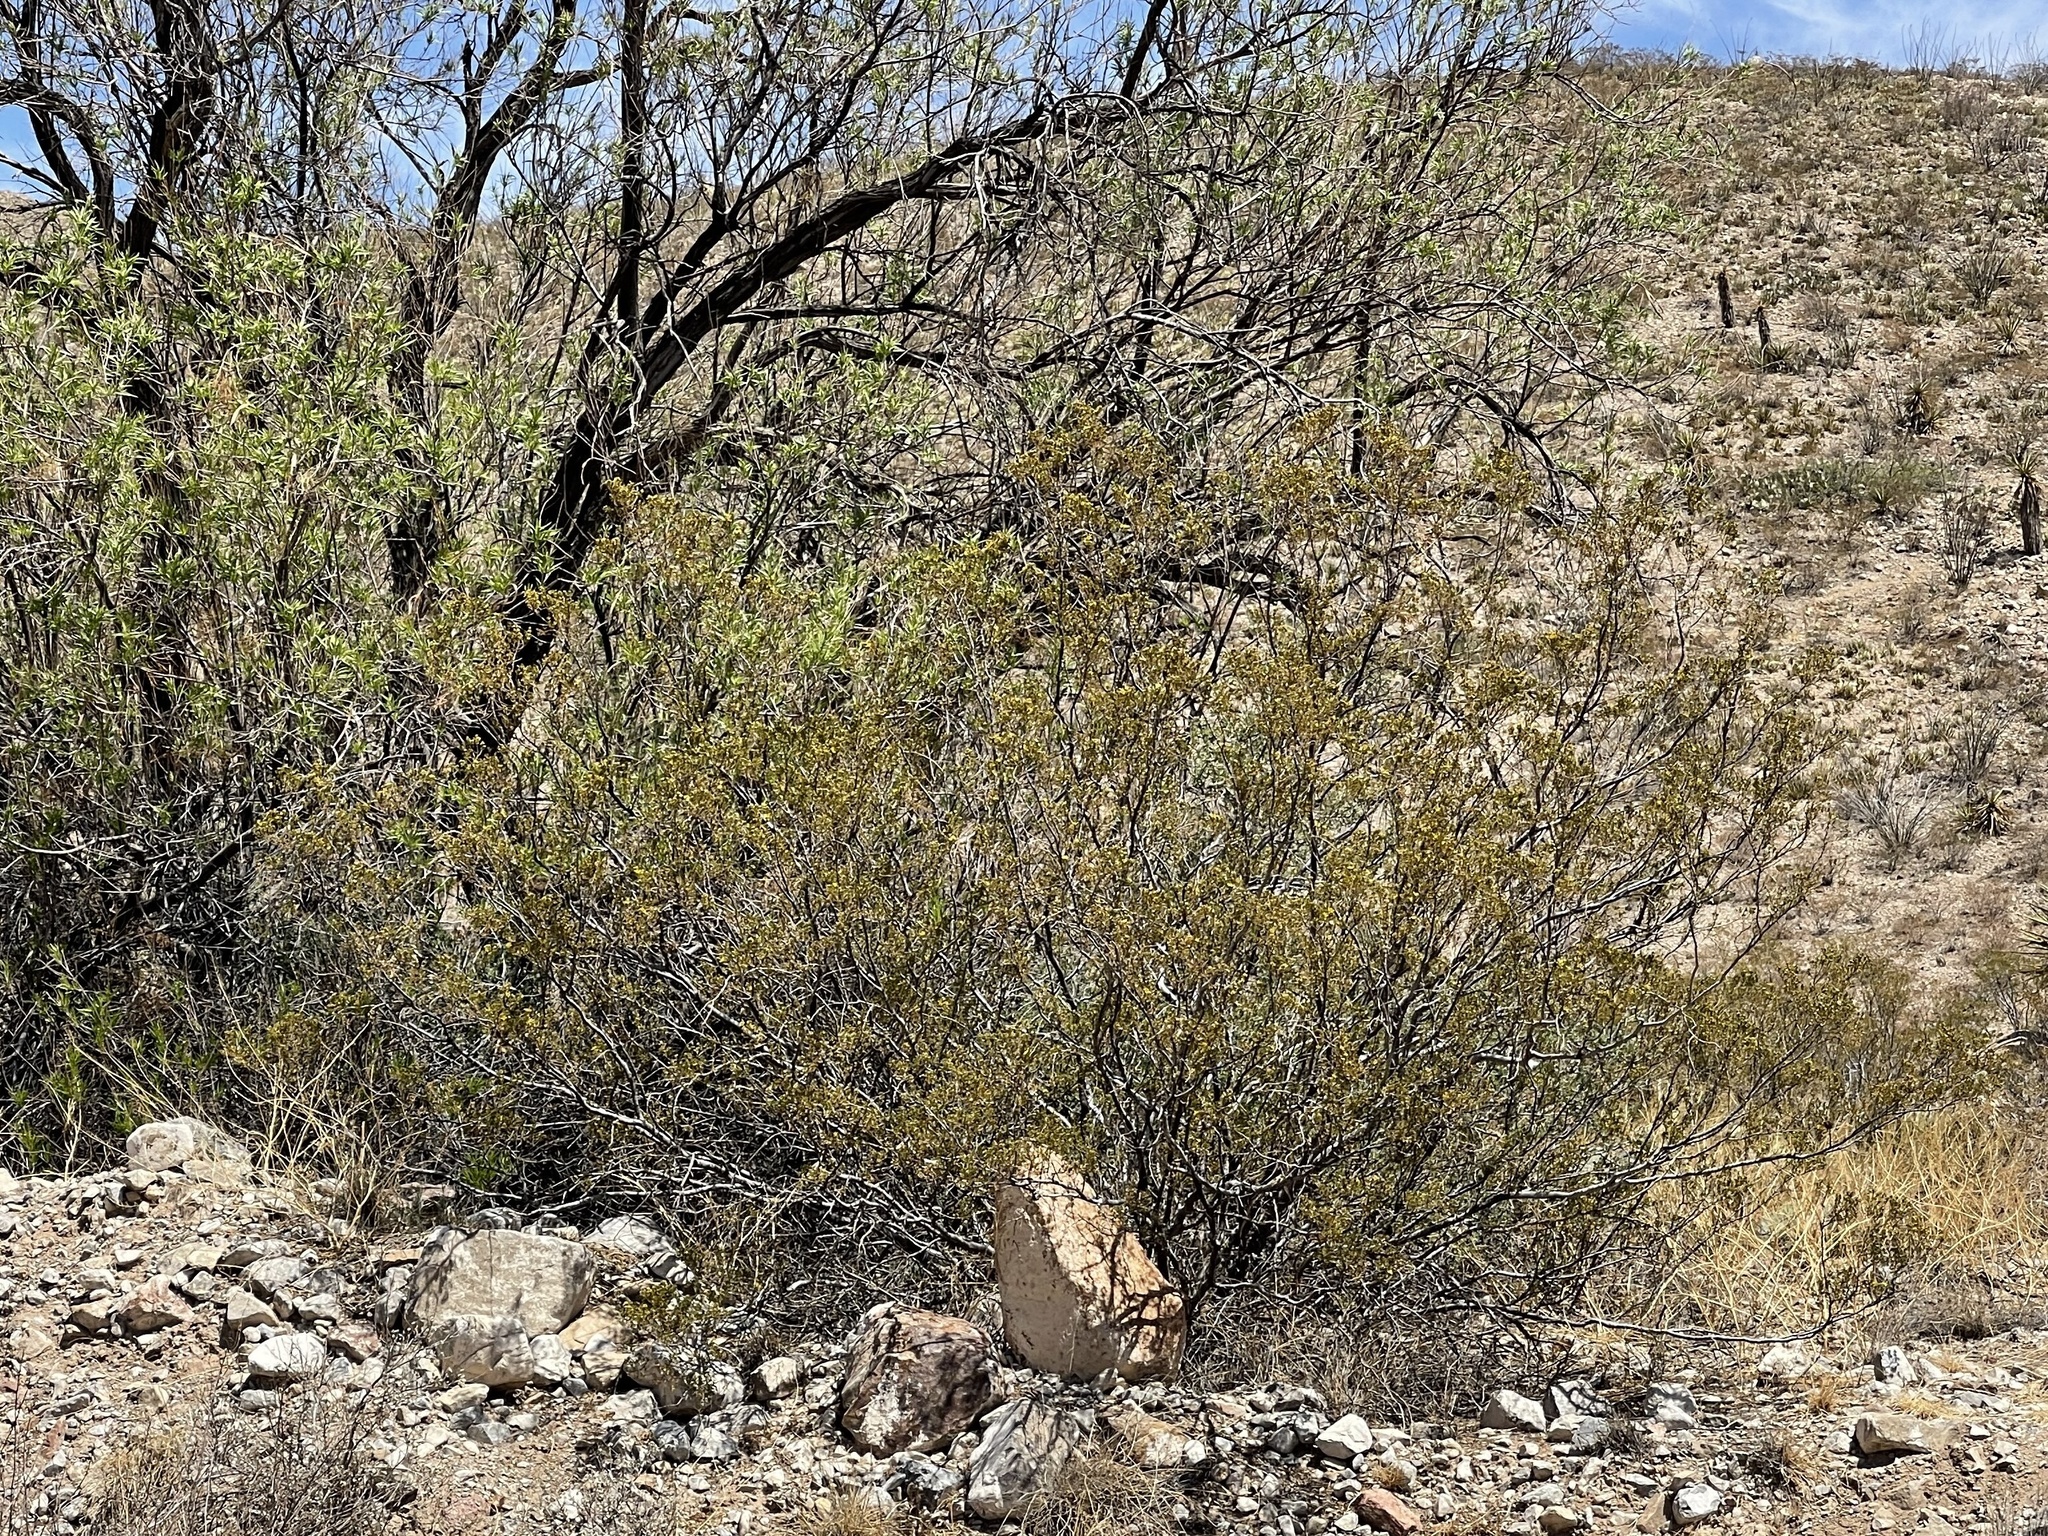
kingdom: Plantae
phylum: Tracheophyta
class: Magnoliopsida
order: Zygophyllales
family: Zygophyllaceae
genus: Larrea
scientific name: Larrea tridentata
